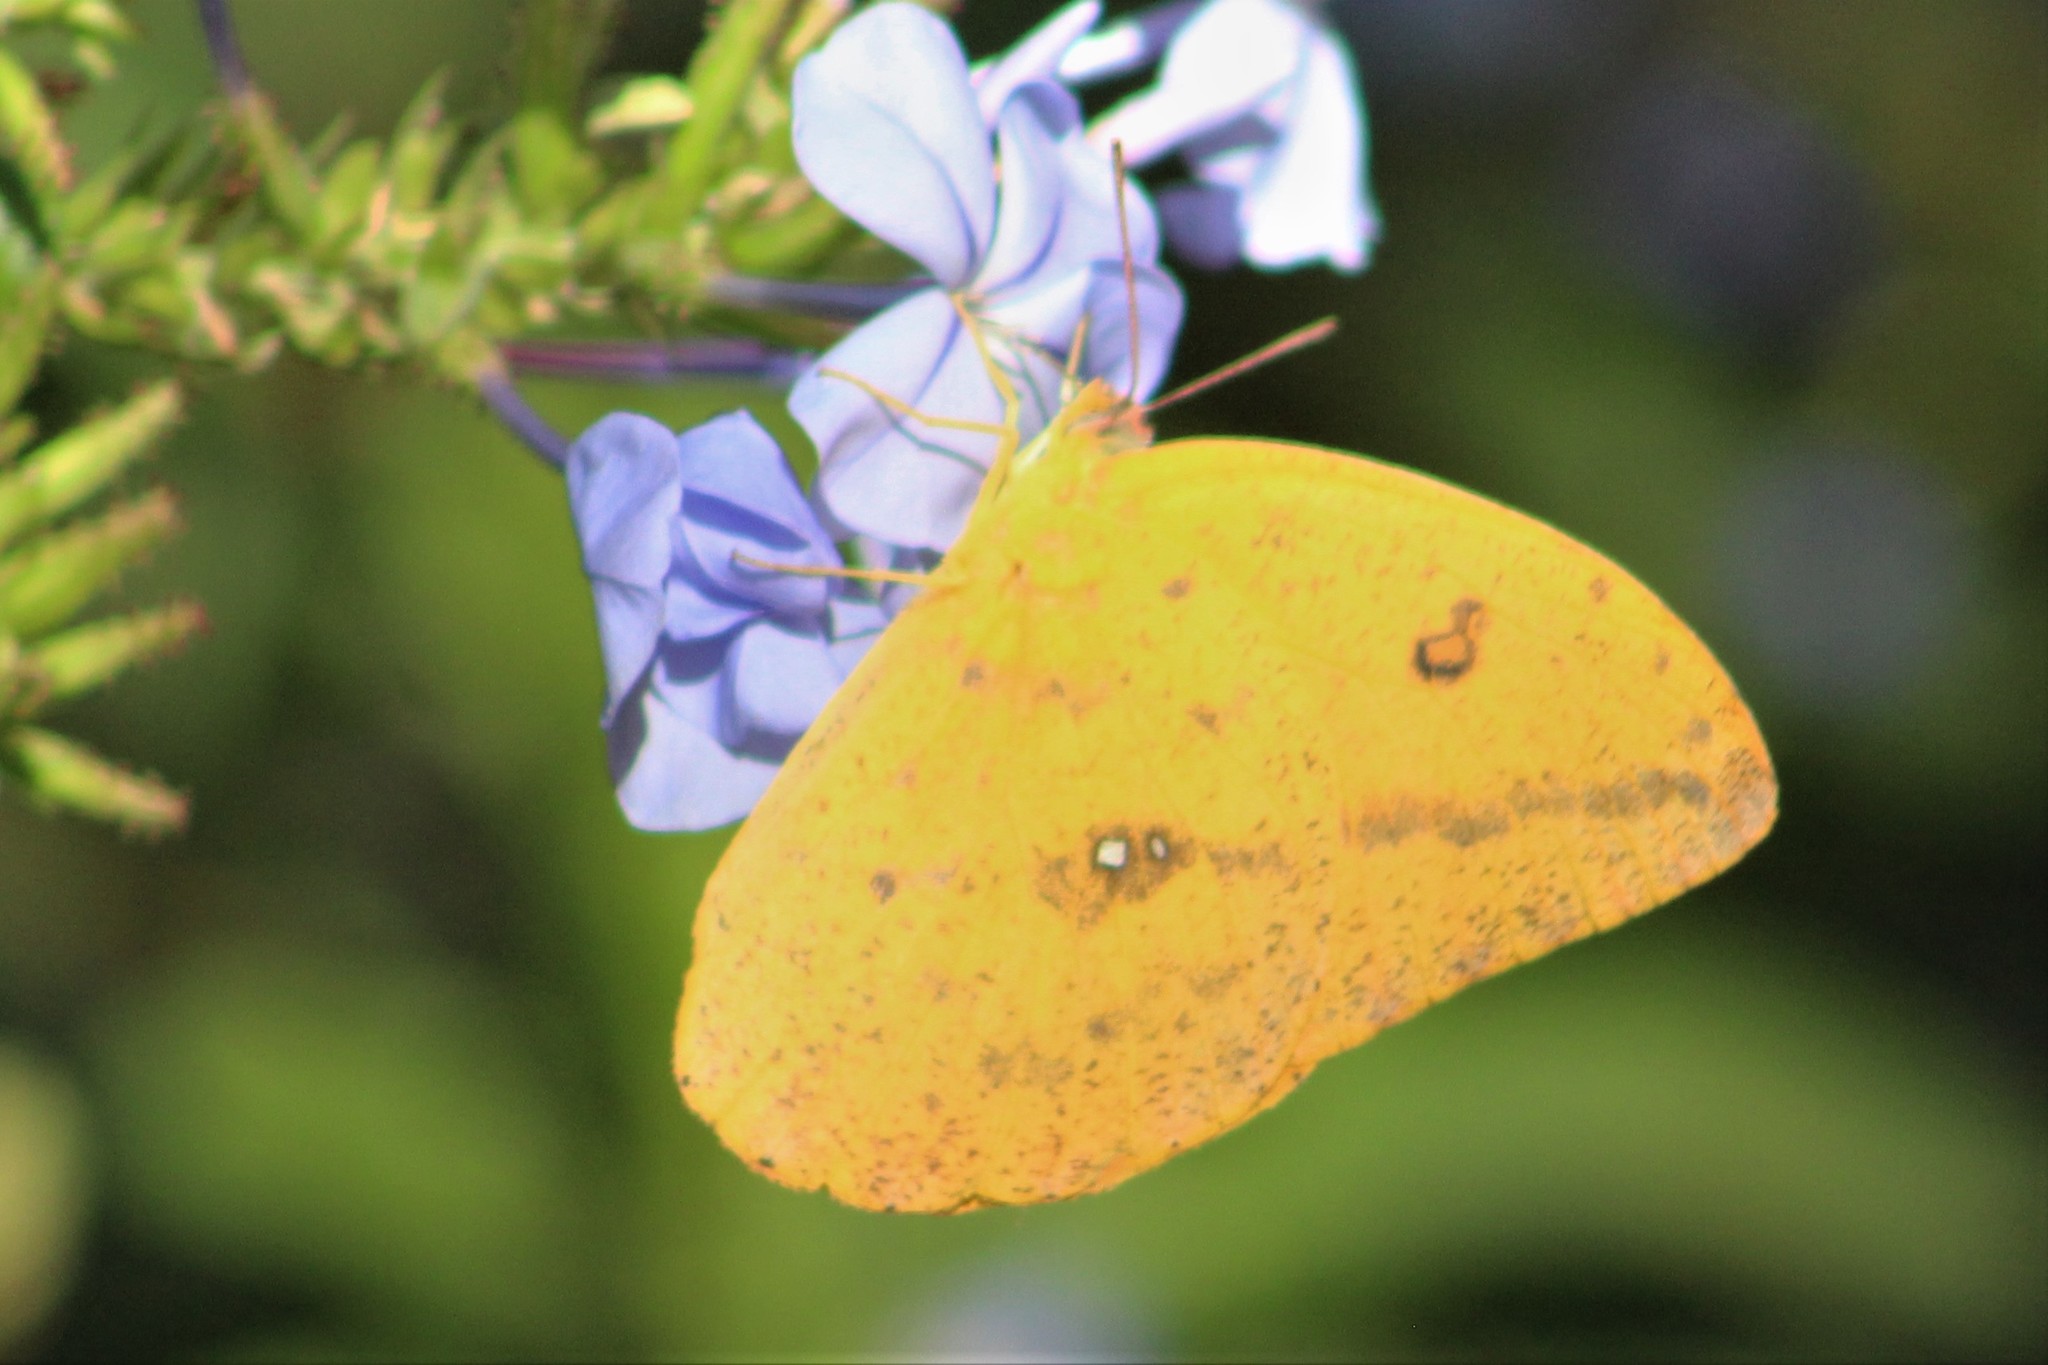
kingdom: Animalia
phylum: Arthropoda
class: Insecta
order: Lepidoptera
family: Pieridae
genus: Phoebis
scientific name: Phoebis philea
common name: Orange-barred giant sulphur
